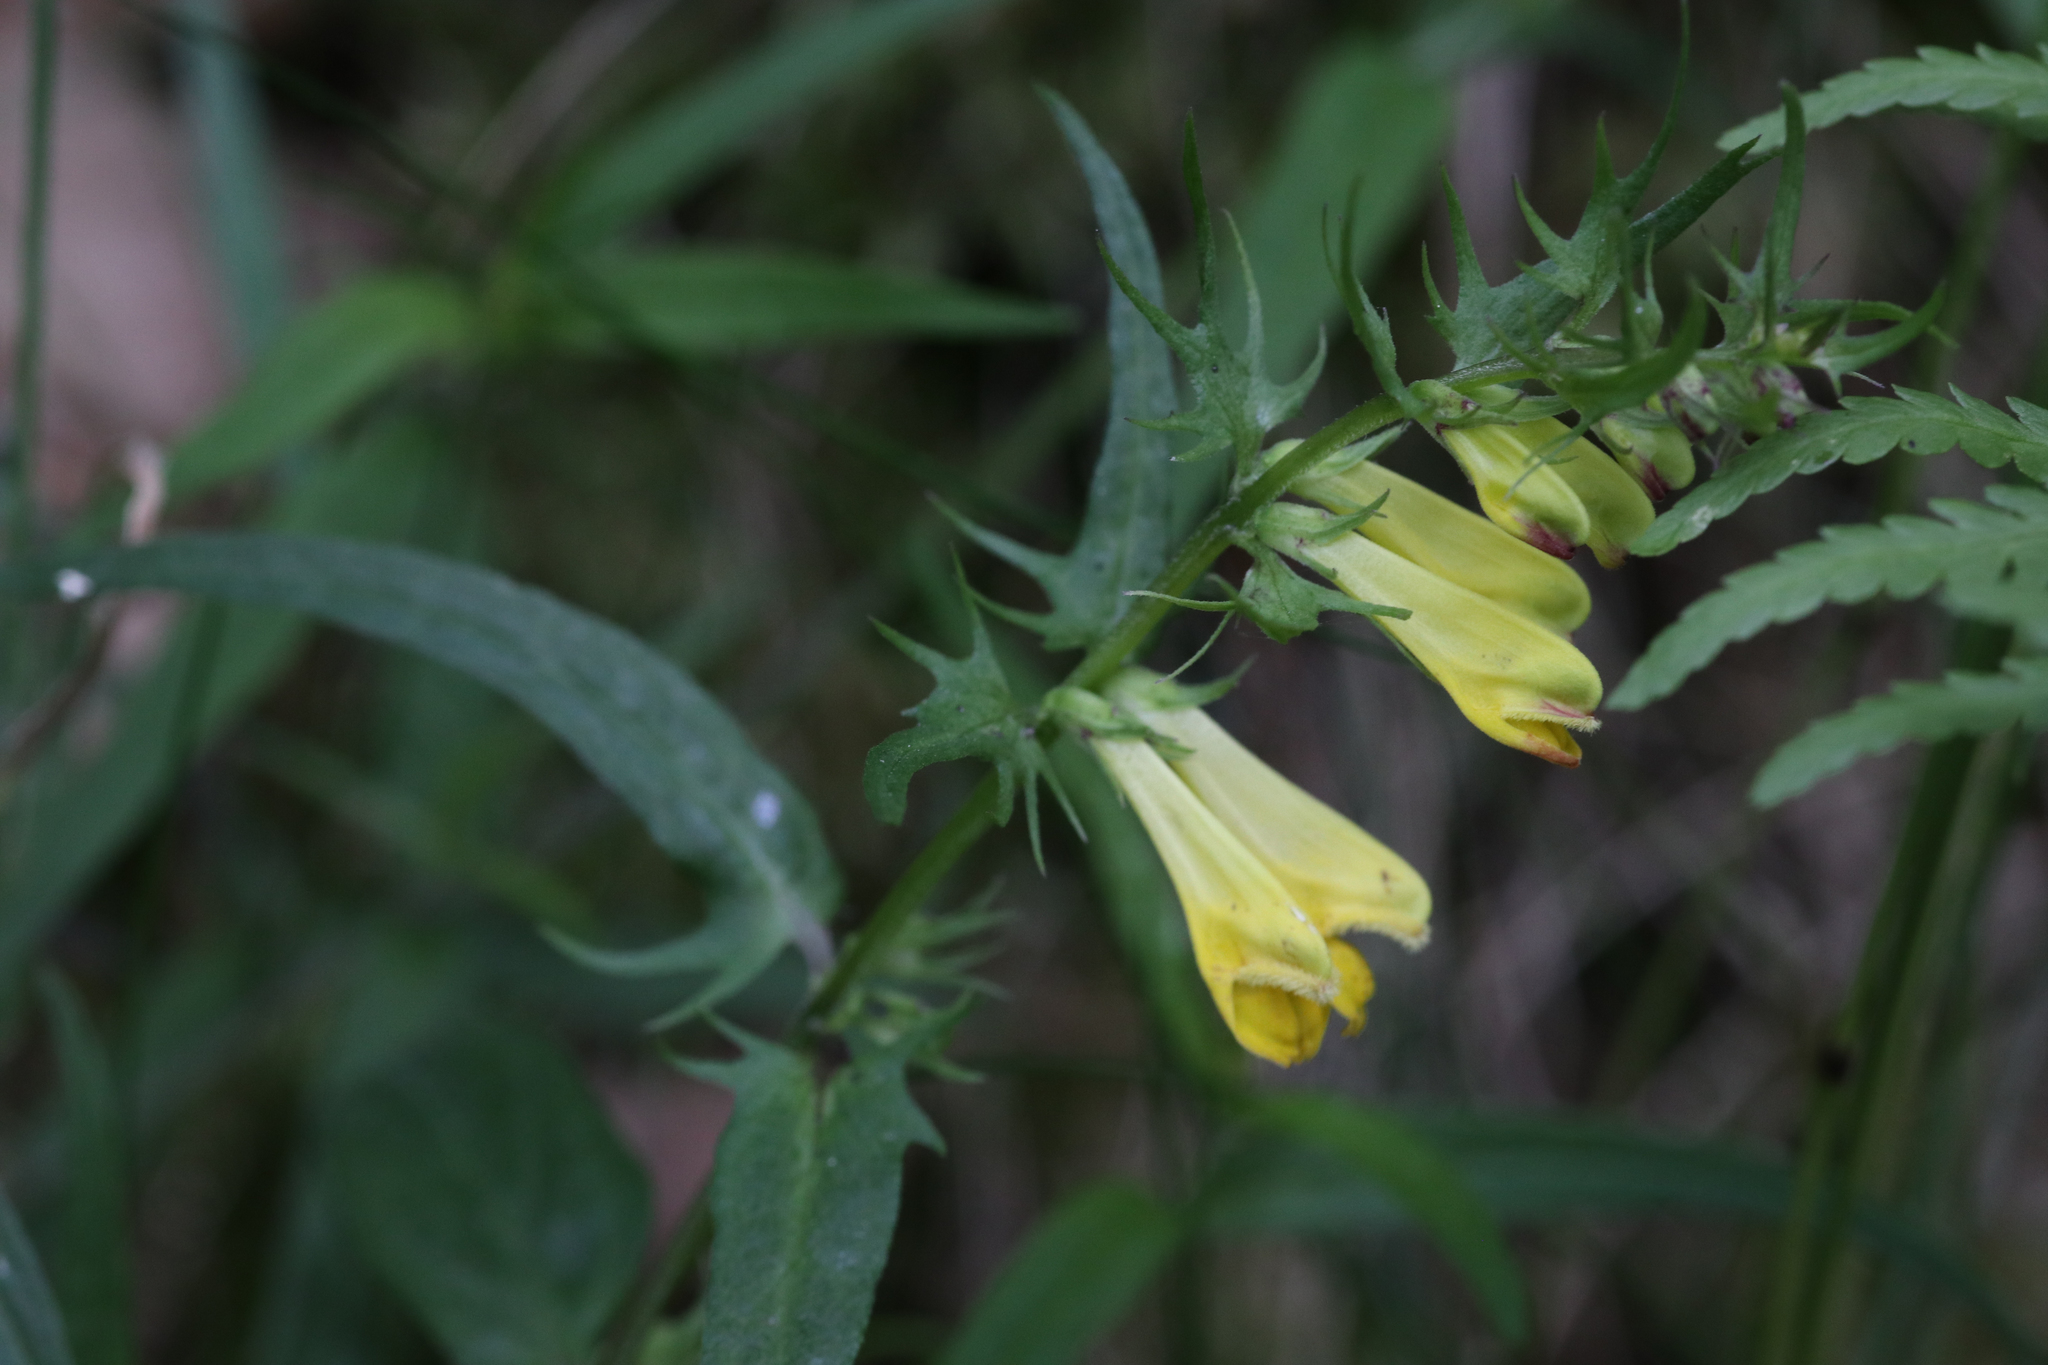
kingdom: Plantae
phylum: Tracheophyta
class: Magnoliopsida
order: Lamiales
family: Orobanchaceae
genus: Melampyrum
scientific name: Melampyrum pratense
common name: Common cow-wheat
